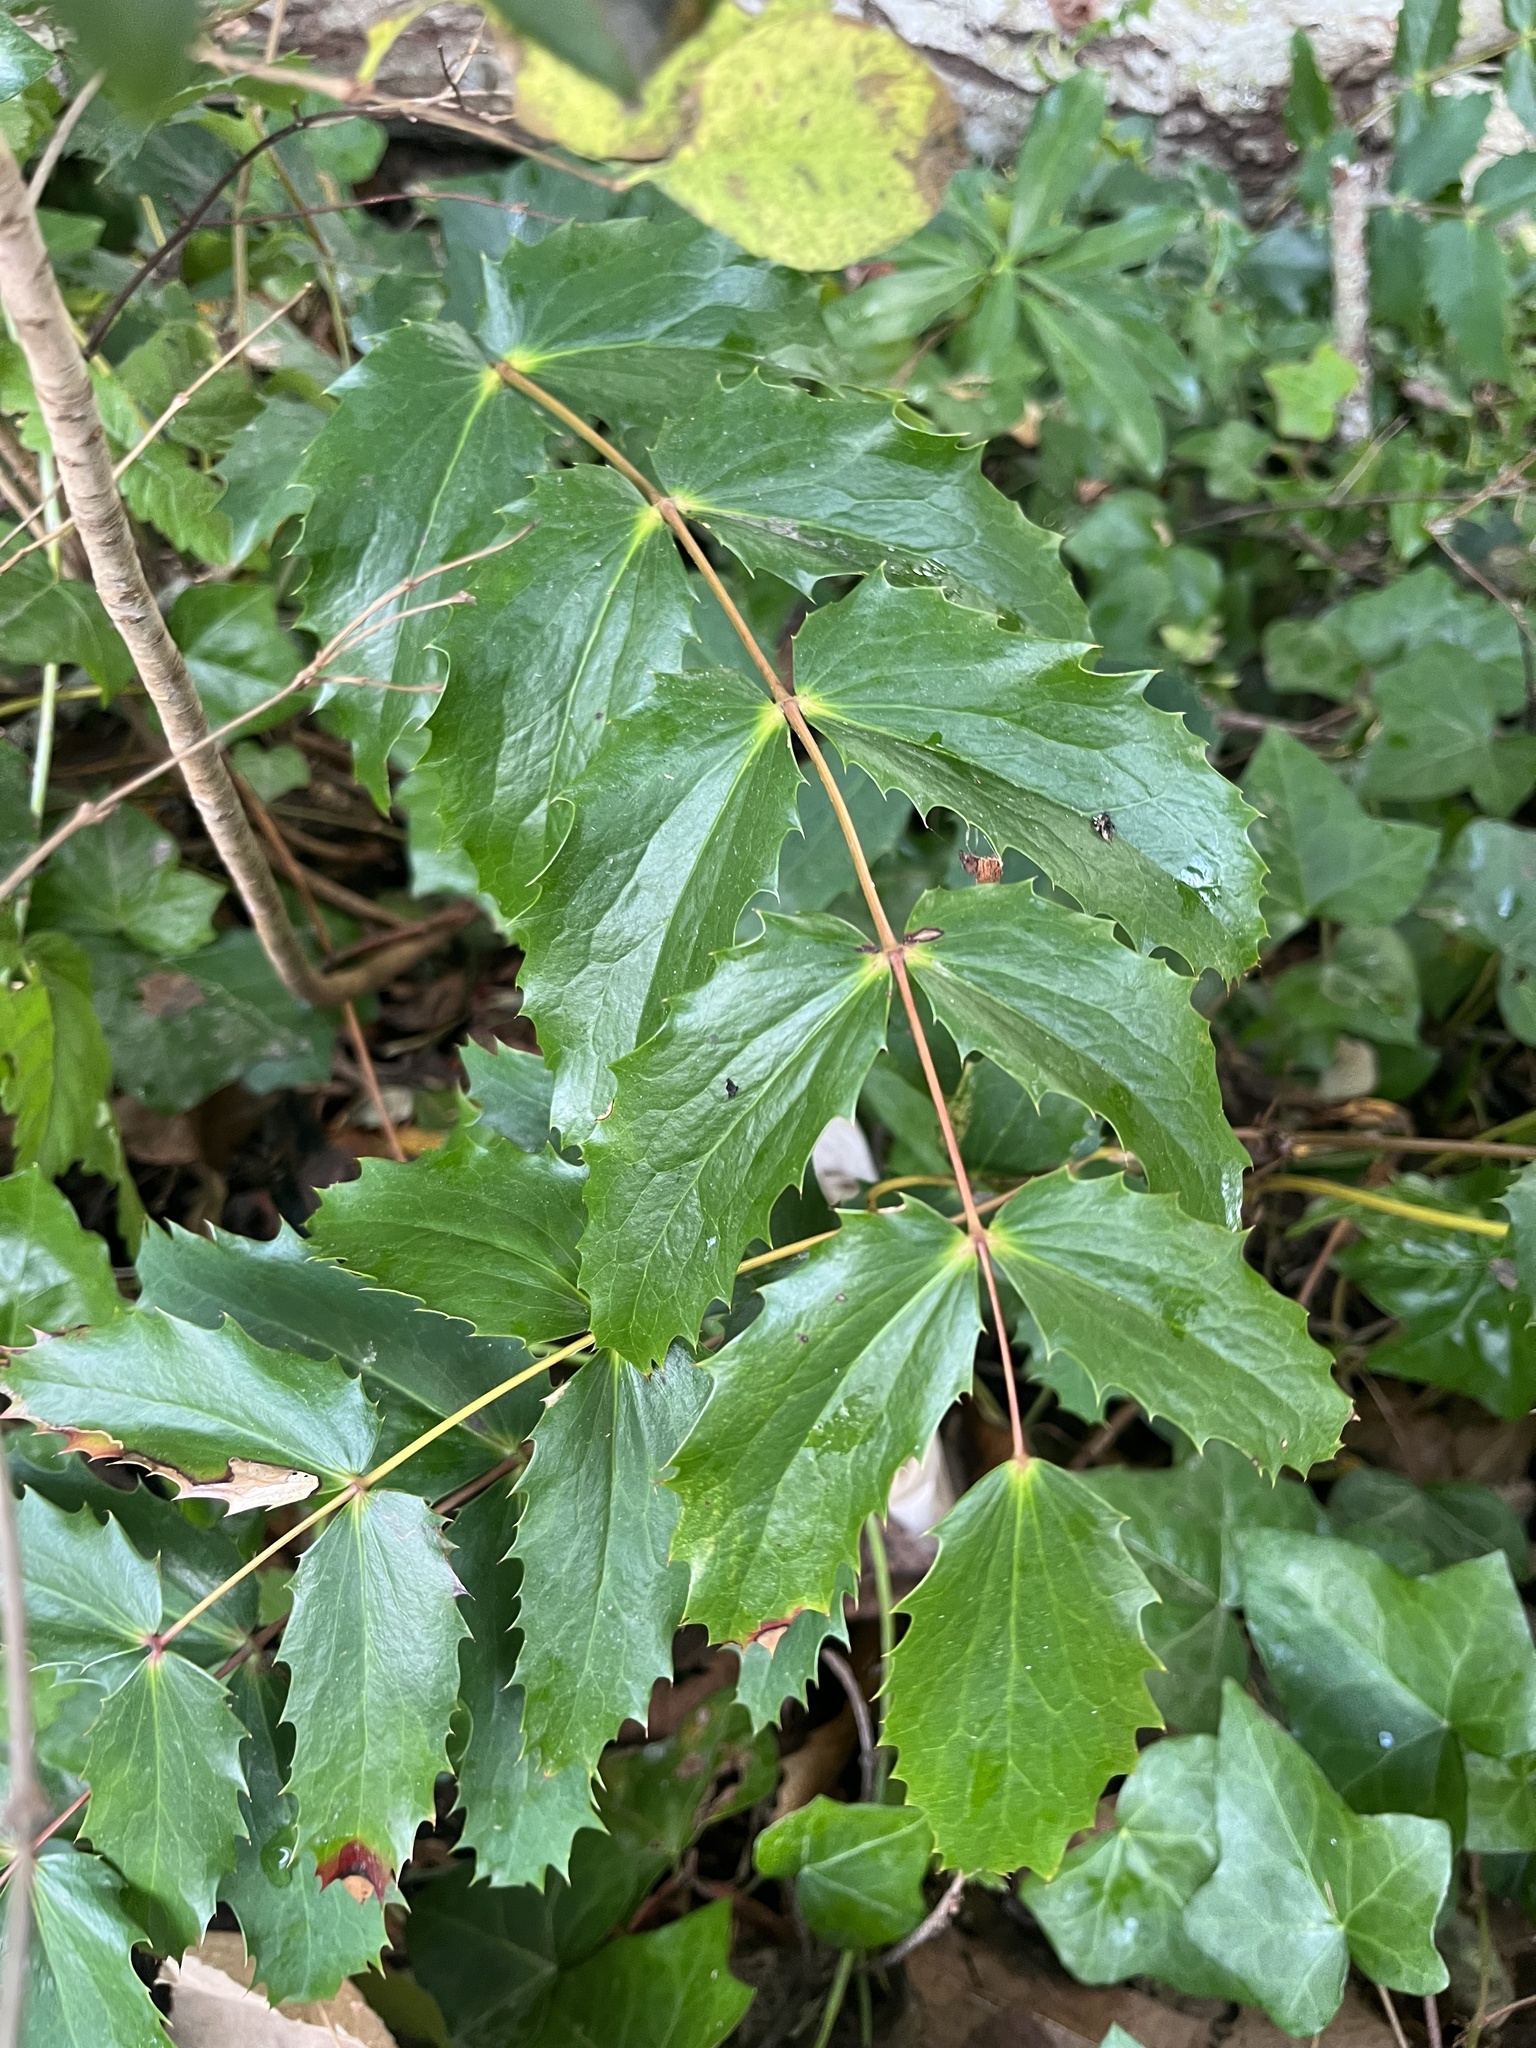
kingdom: Plantae
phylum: Tracheophyta
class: Magnoliopsida
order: Ranunculales
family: Berberidaceae
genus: Mahonia
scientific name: Mahonia nervosa
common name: Cascade oregon-grape
